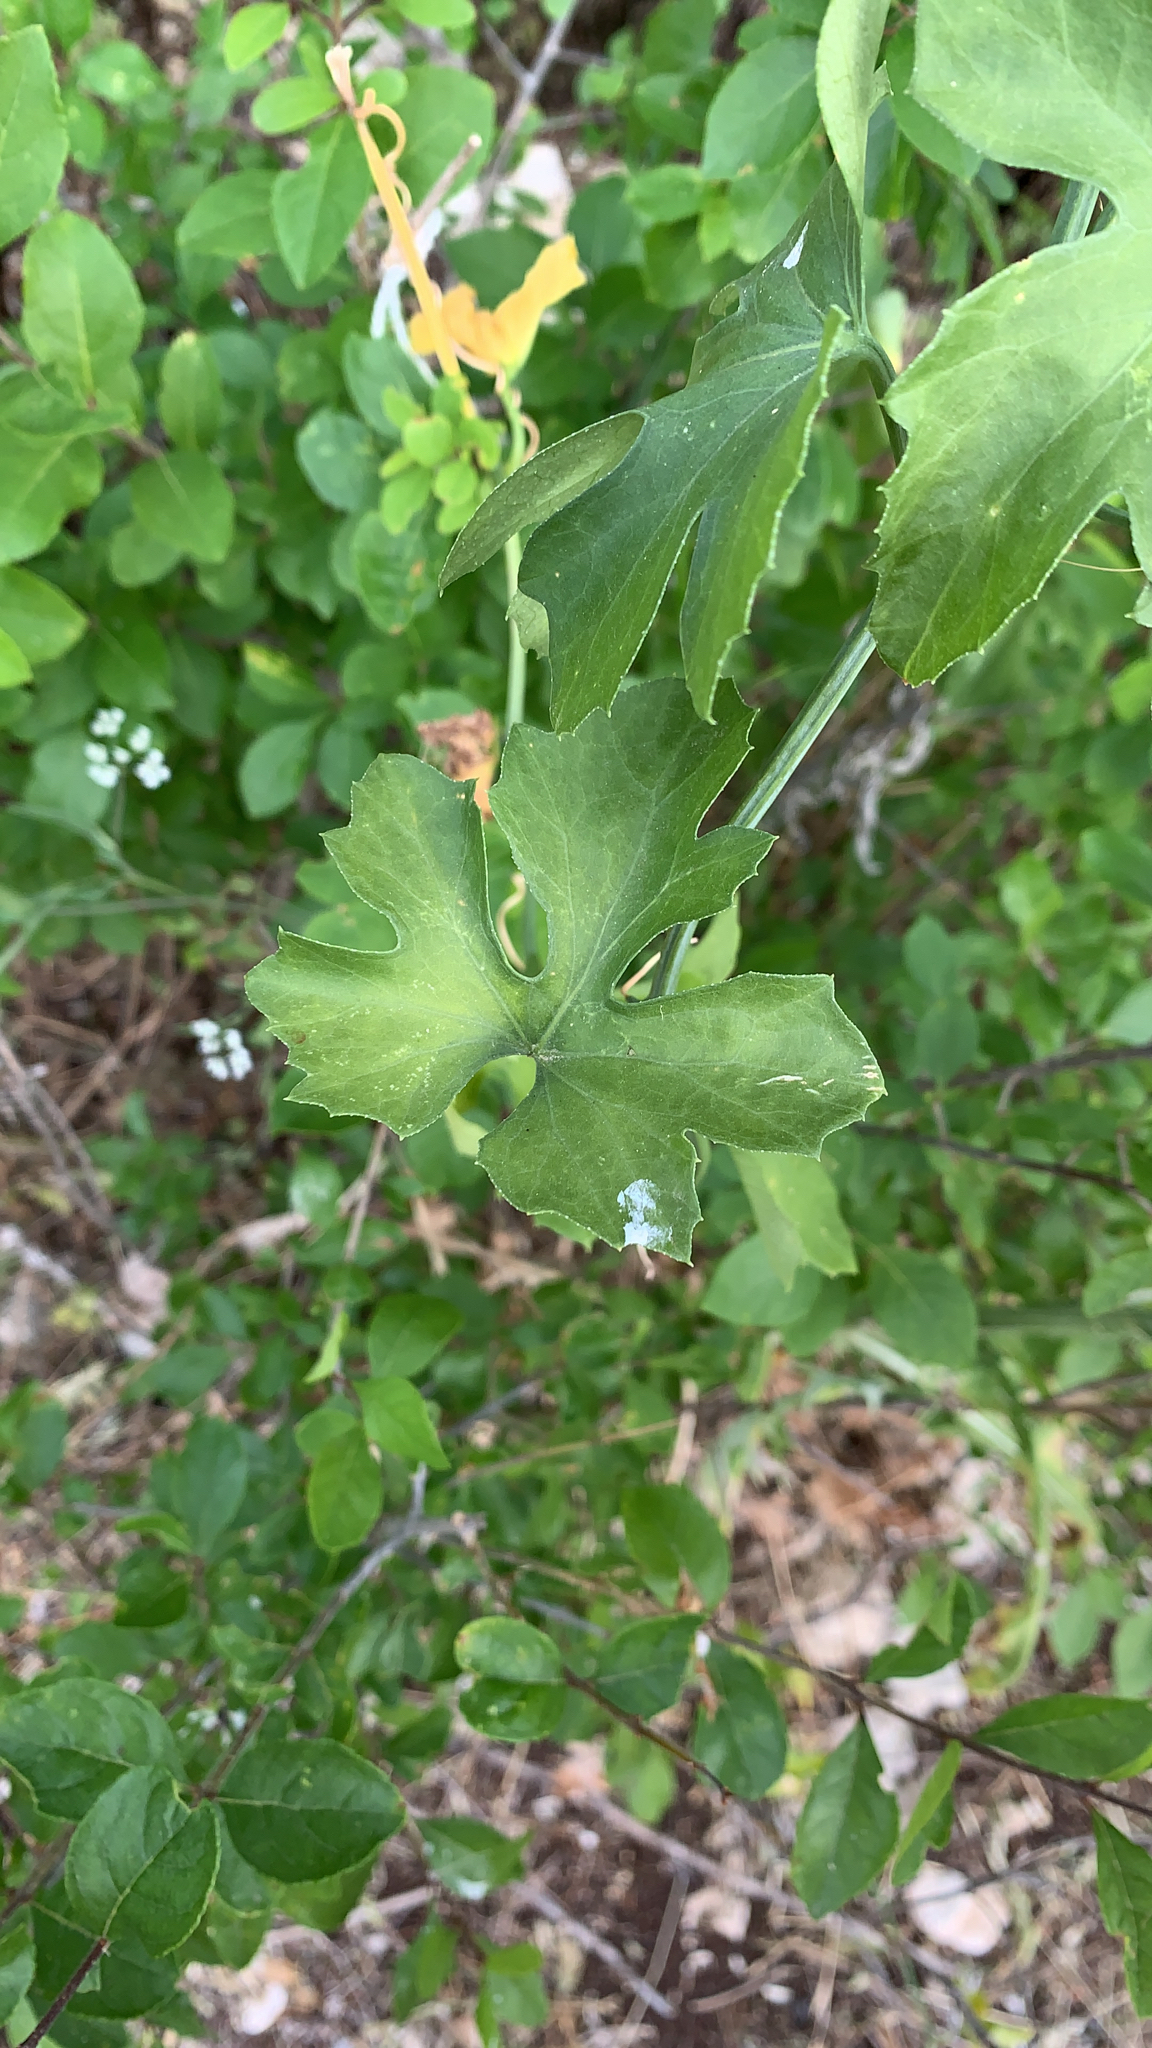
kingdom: Plantae
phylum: Tracheophyta
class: Magnoliopsida
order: Cucurbitales
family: Cucurbitaceae
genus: Ibervillea
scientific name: Ibervillea lindheimeri
